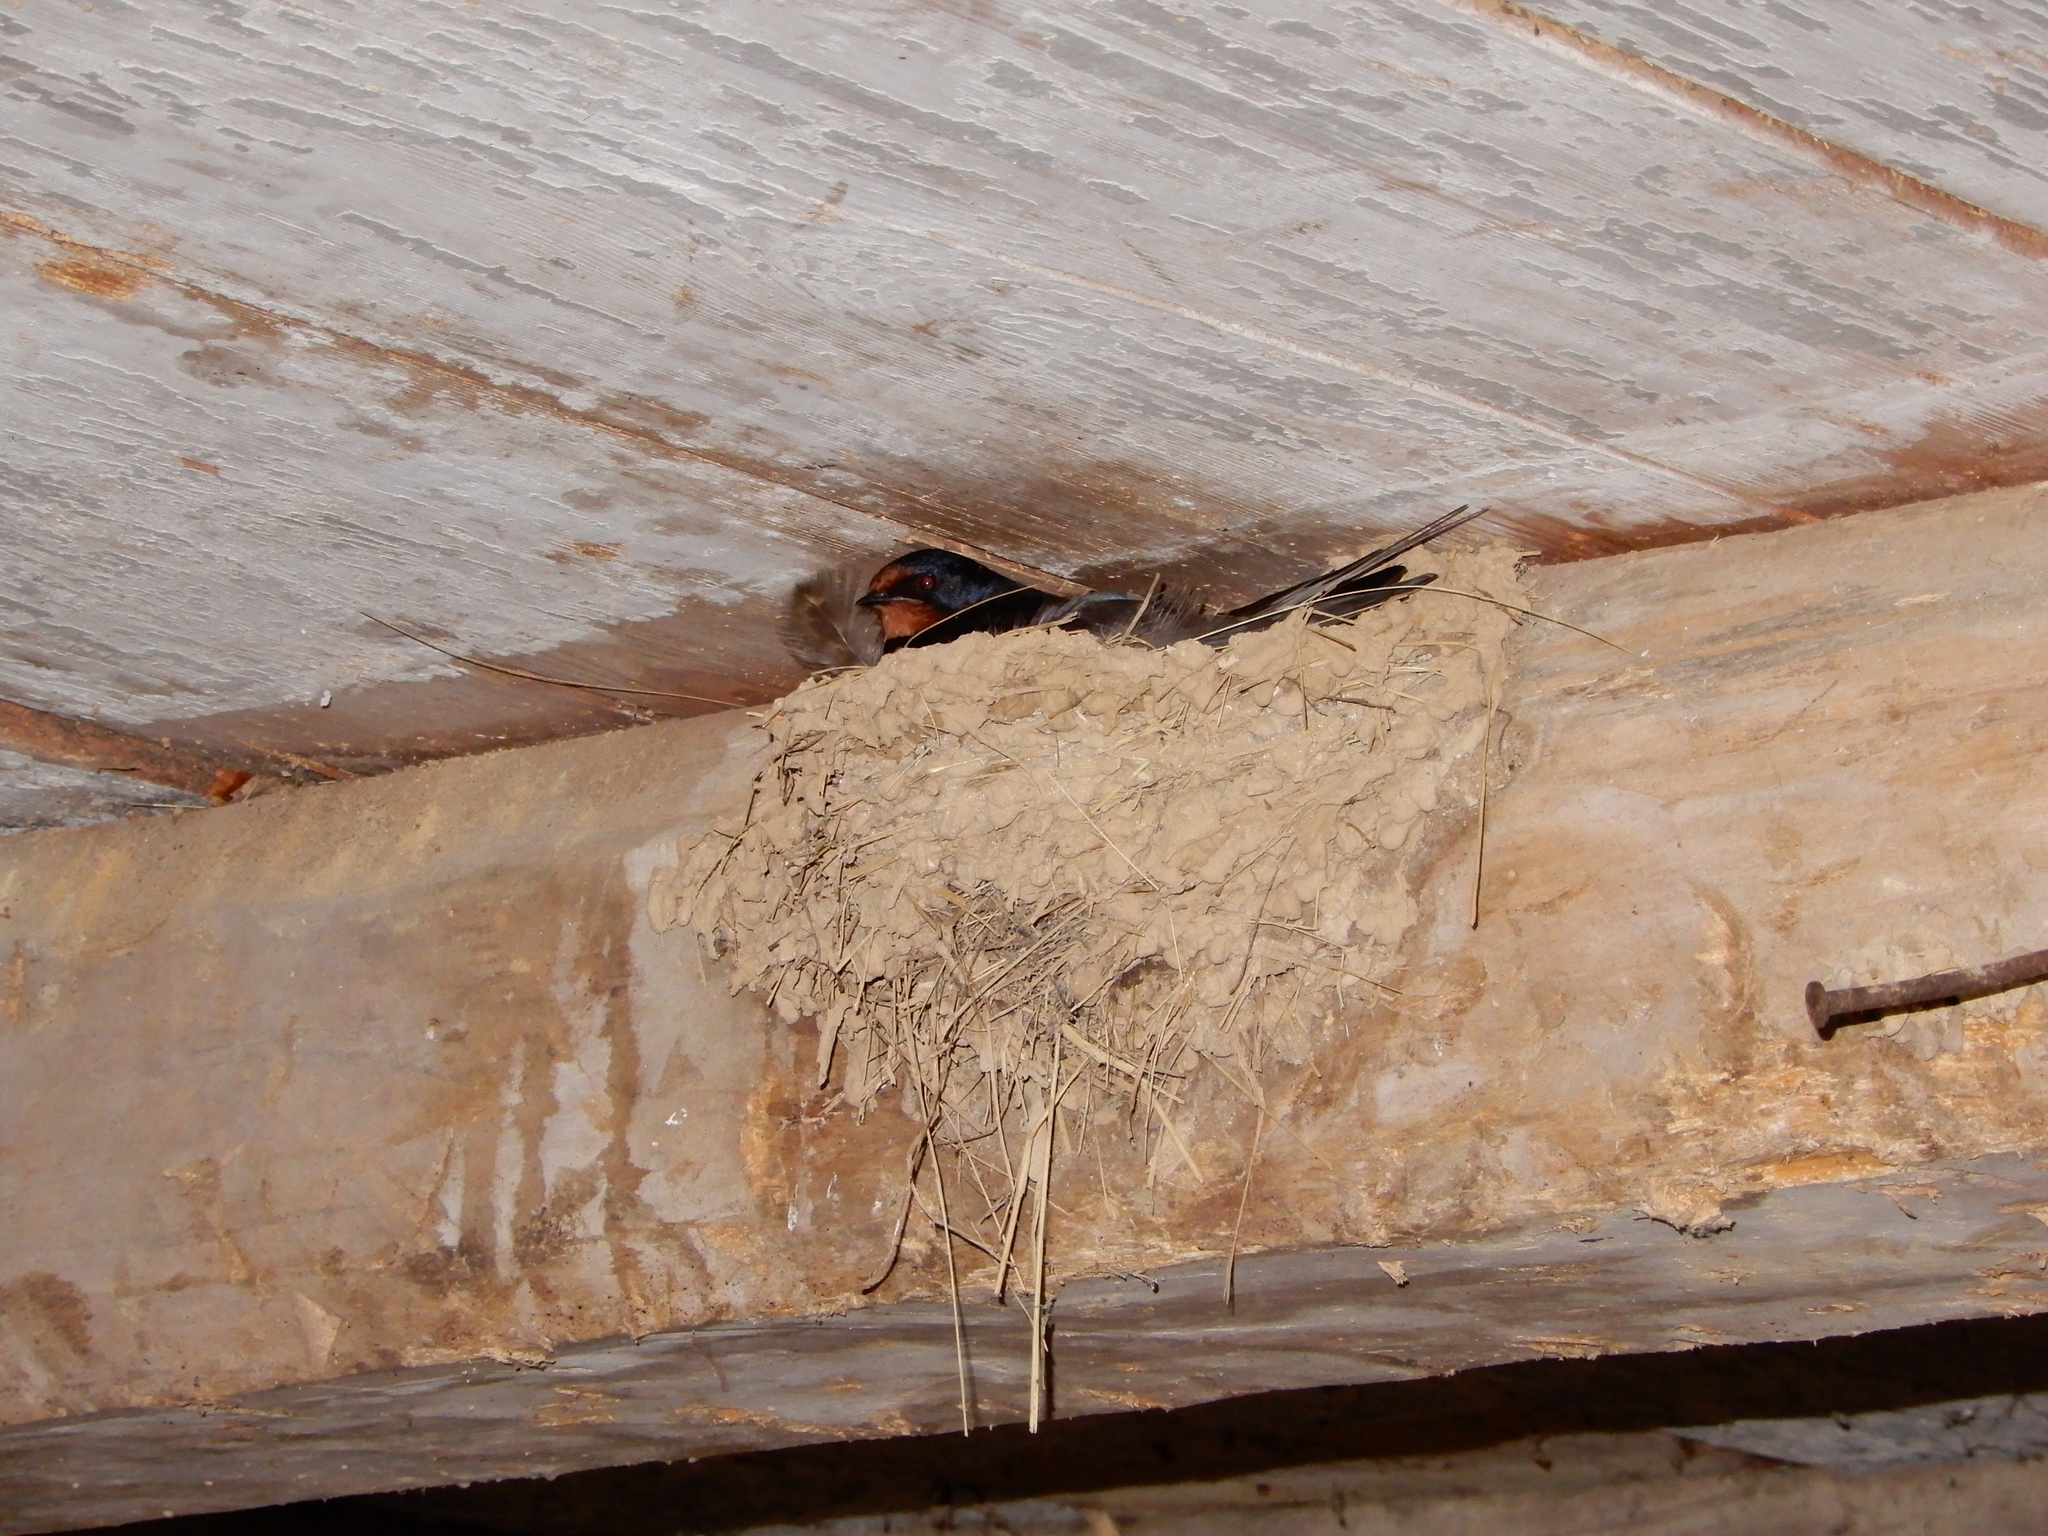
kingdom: Animalia
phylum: Chordata
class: Aves
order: Passeriformes
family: Hirundinidae
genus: Hirundo
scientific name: Hirundo rustica
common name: Barn swallow
